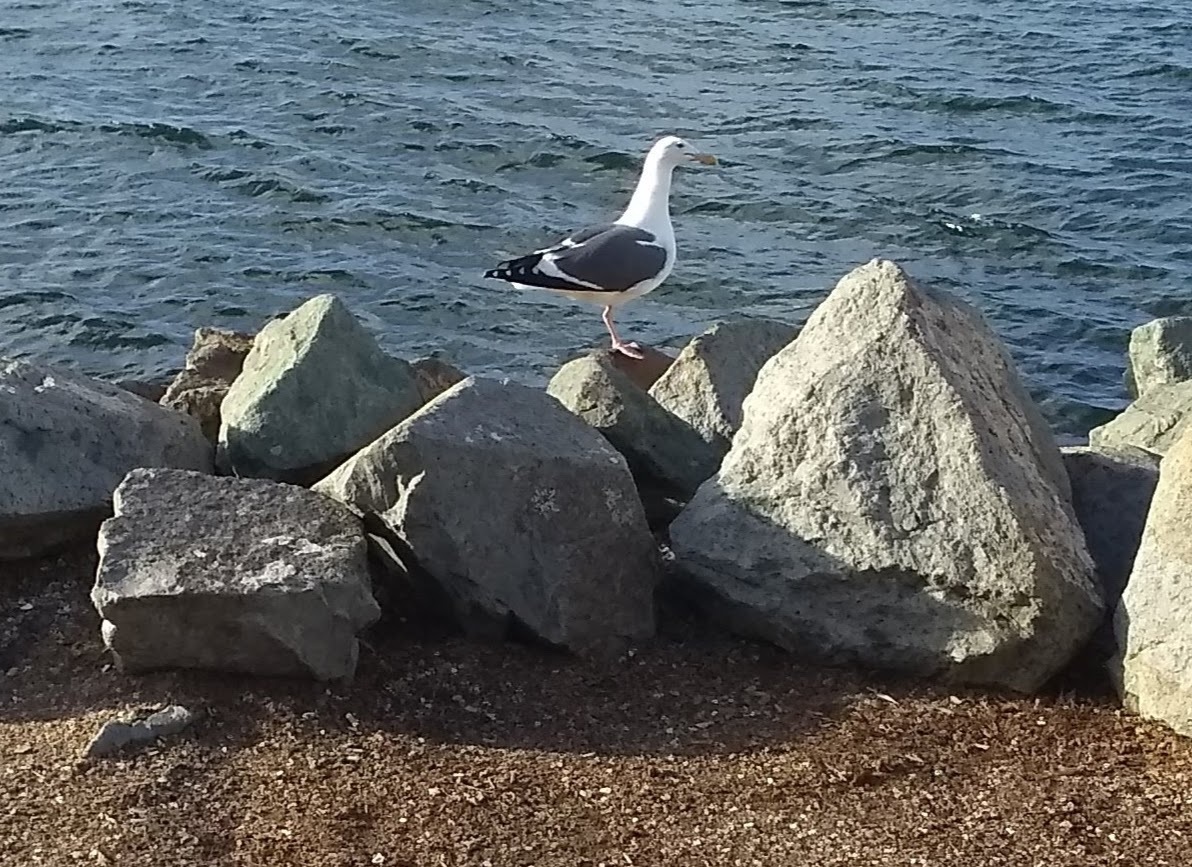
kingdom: Animalia
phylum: Chordata
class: Aves
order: Charadriiformes
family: Laridae
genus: Larus
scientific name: Larus occidentalis
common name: Western gull
